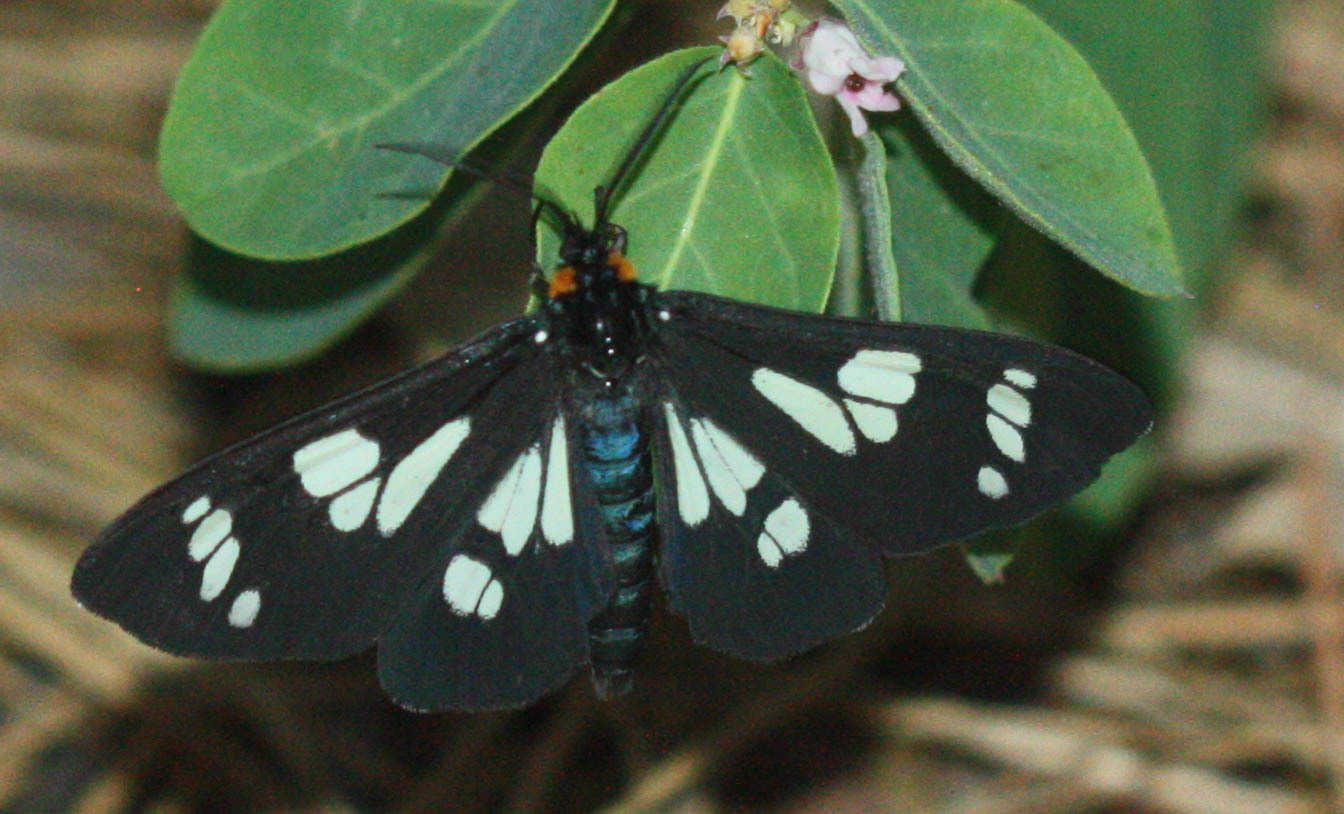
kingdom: Animalia
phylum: Arthropoda
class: Insecta
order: Lepidoptera
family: Erebidae
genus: Gnophaela
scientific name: Gnophaela latipennis
